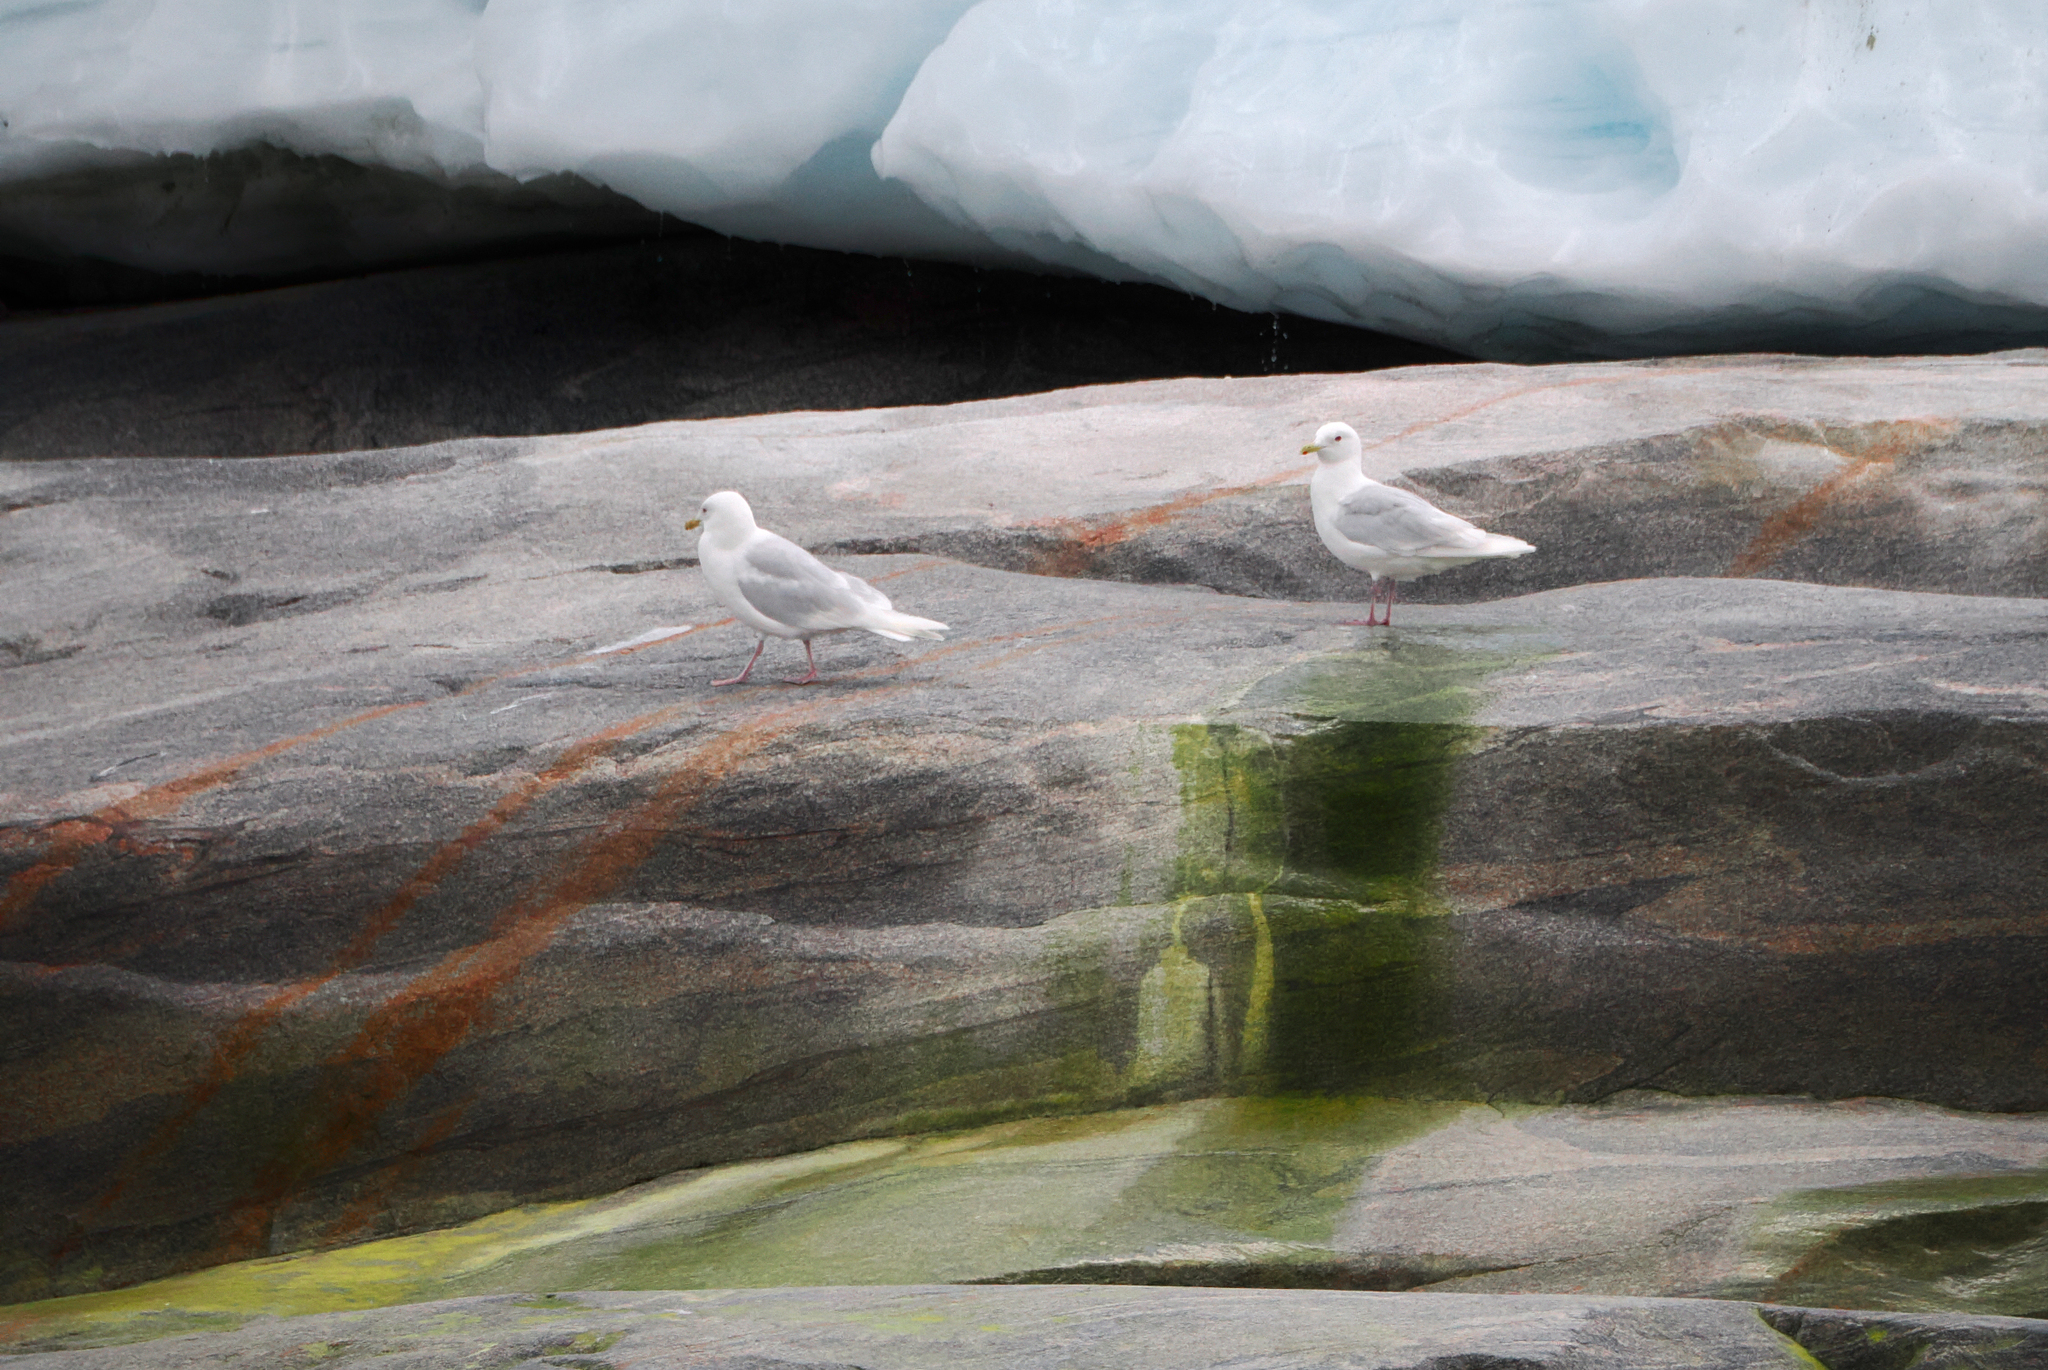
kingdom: Animalia
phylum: Chordata
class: Aves
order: Charadriiformes
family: Laridae
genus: Larus
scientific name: Larus hyperboreus
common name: Glaucous gull
